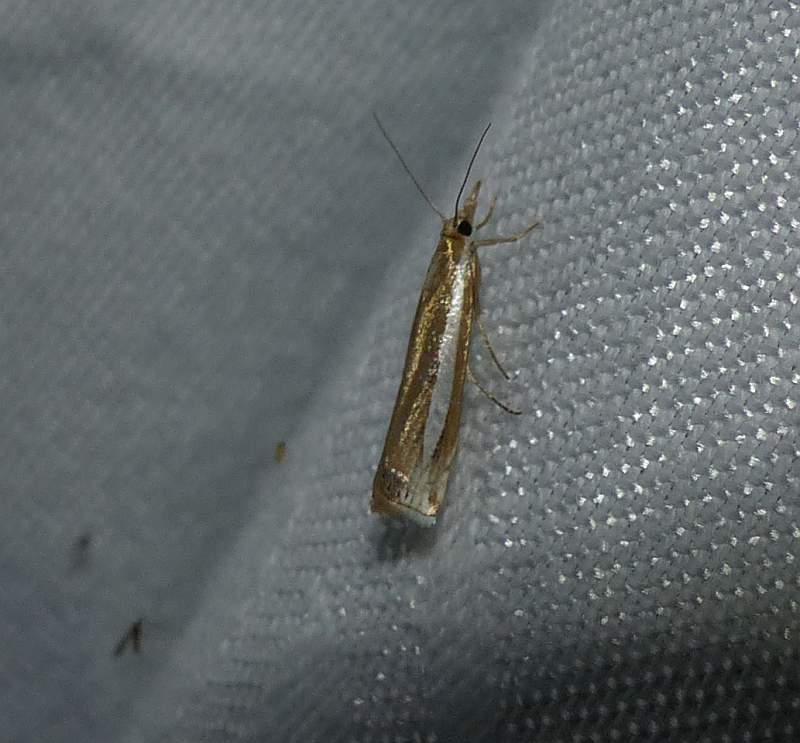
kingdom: Animalia
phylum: Arthropoda
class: Insecta
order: Lepidoptera
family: Crambidae
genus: Crambus
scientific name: Crambus praefectellus
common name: Common grass-veneer
